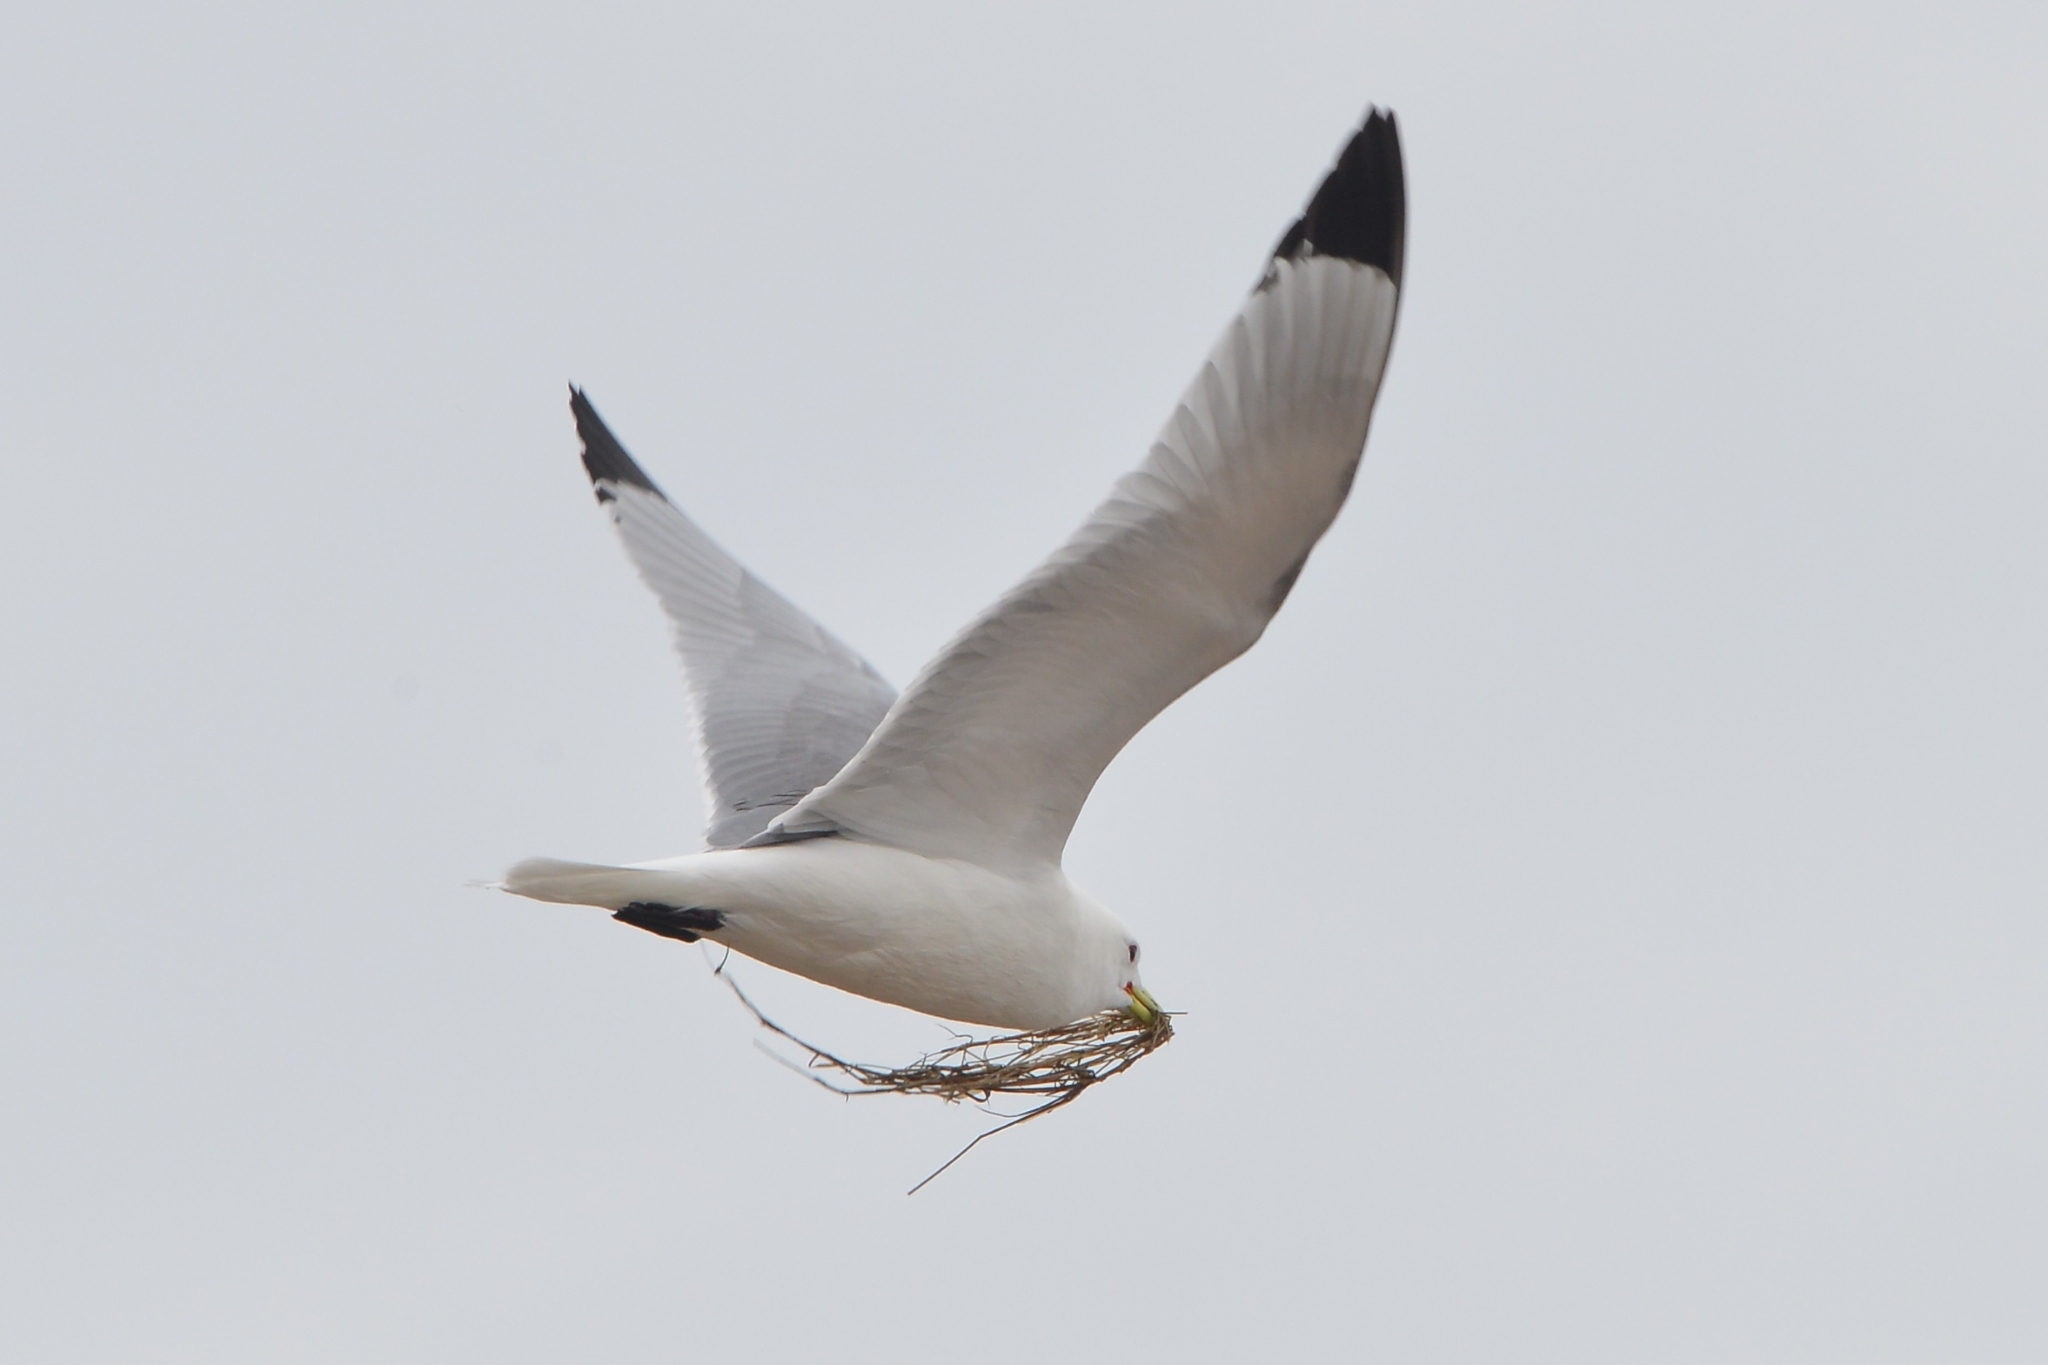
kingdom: Animalia
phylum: Chordata
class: Aves
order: Charadriiformes
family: Laridae
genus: Rissa
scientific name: Rissa tridactyla
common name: Black-legged kittiwake
